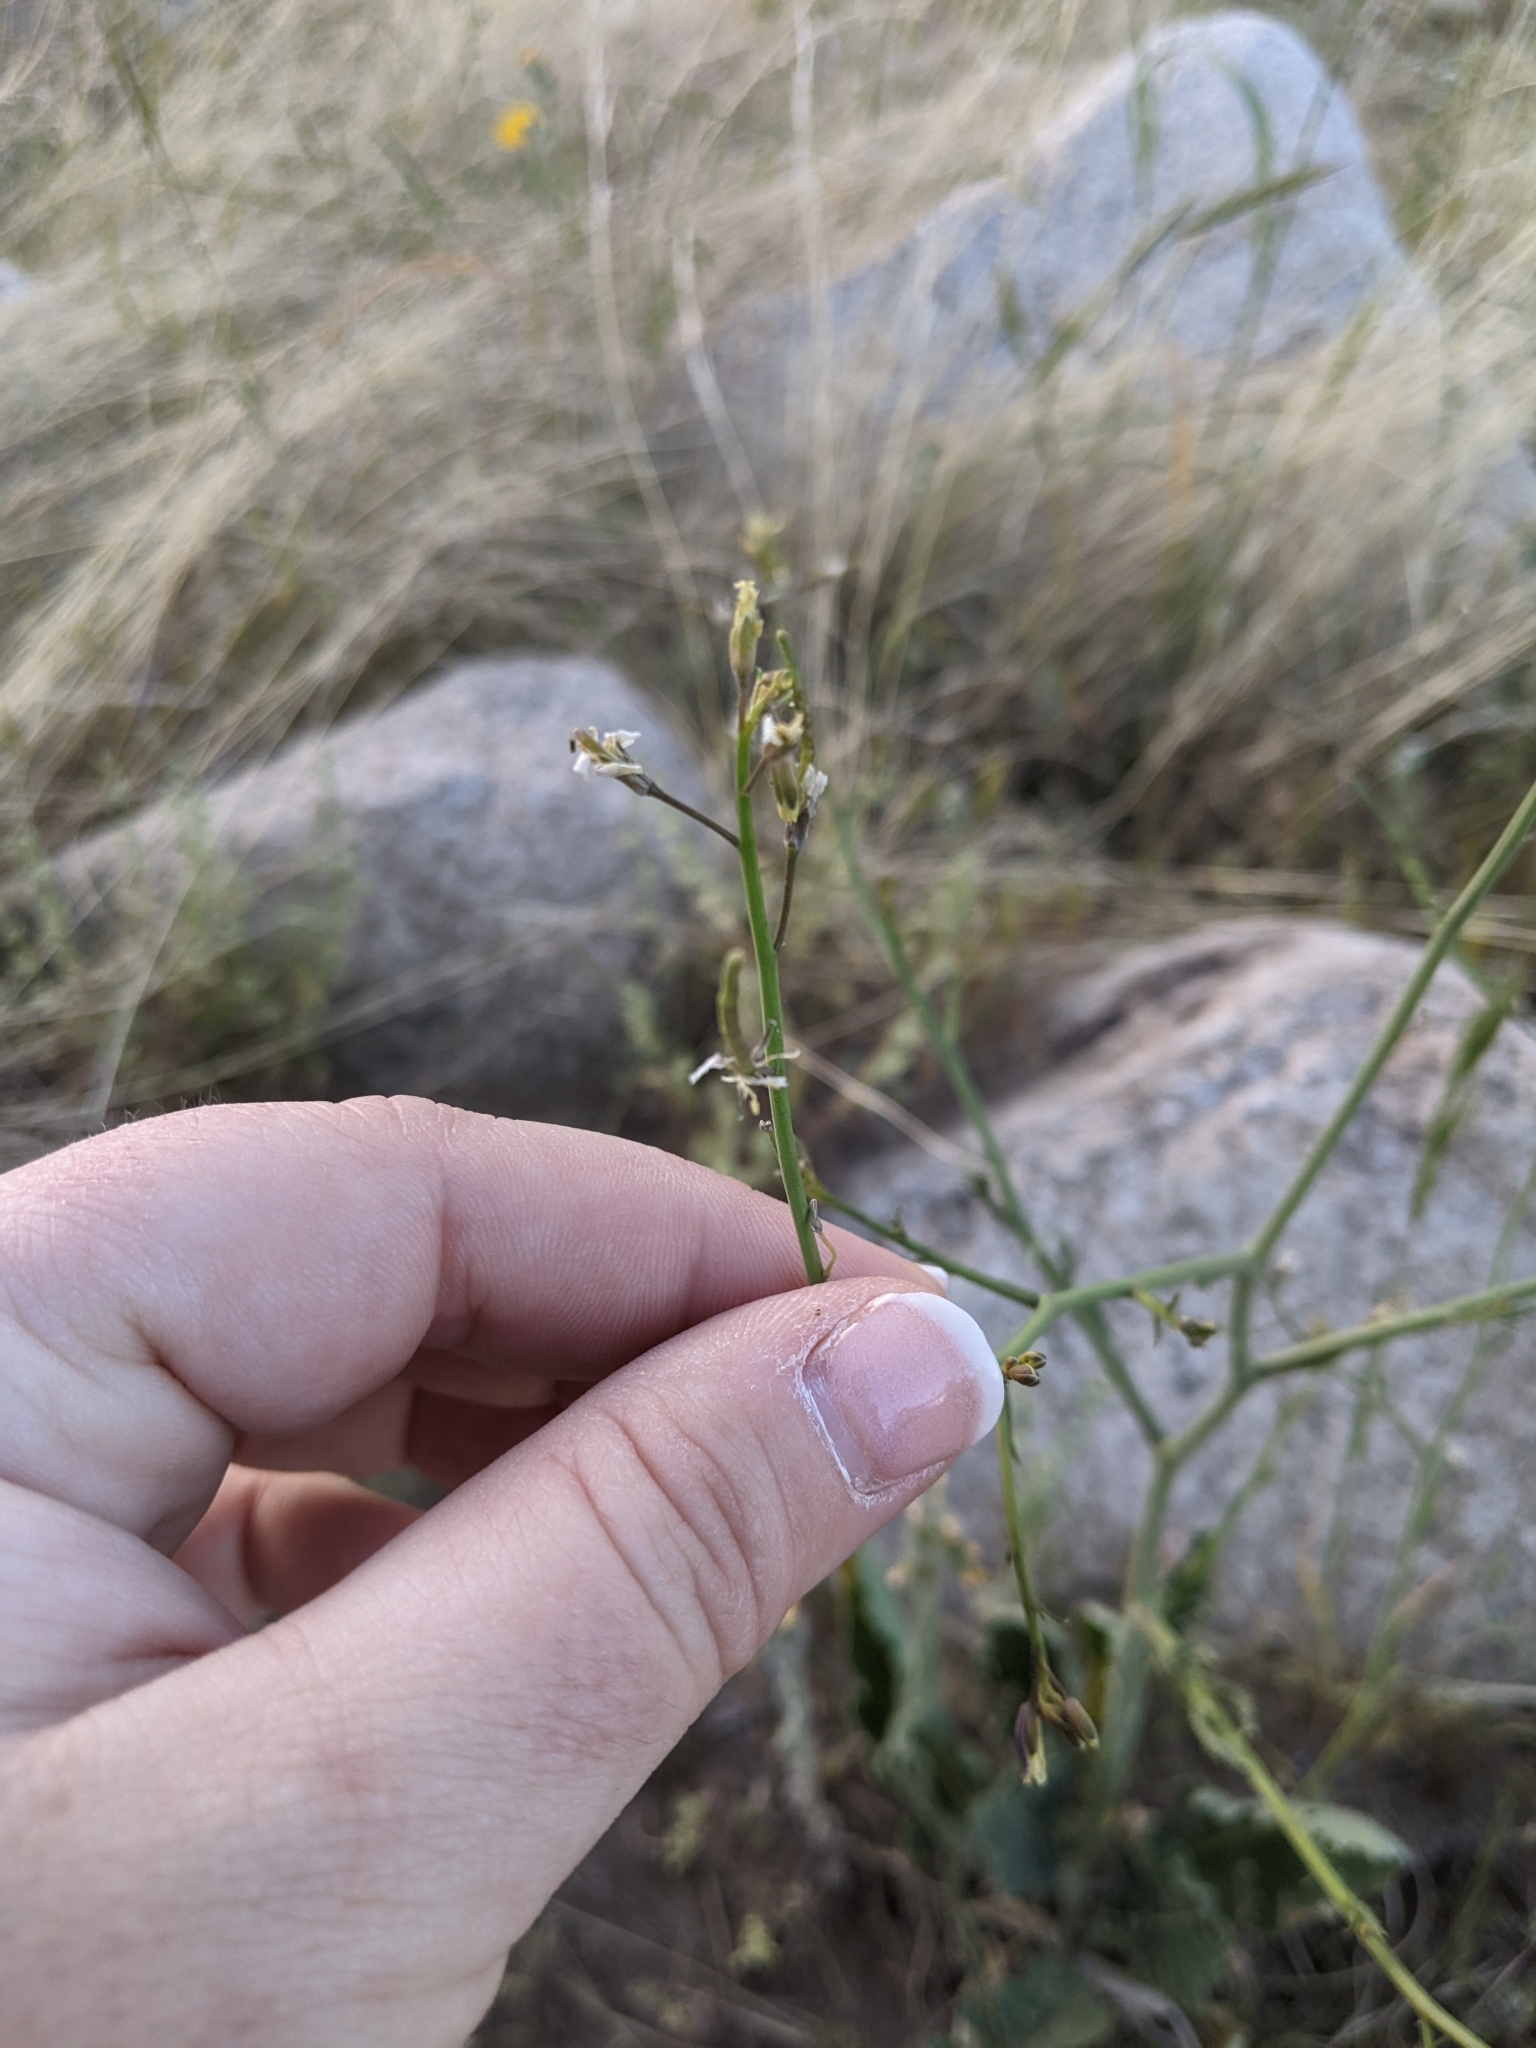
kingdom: Plantae
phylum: Tracheophyta
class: Magnoliopsida
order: Brassicales
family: Brassicaceae
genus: Brassica
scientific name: Brassica tournefortii
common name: Pale cabbage
